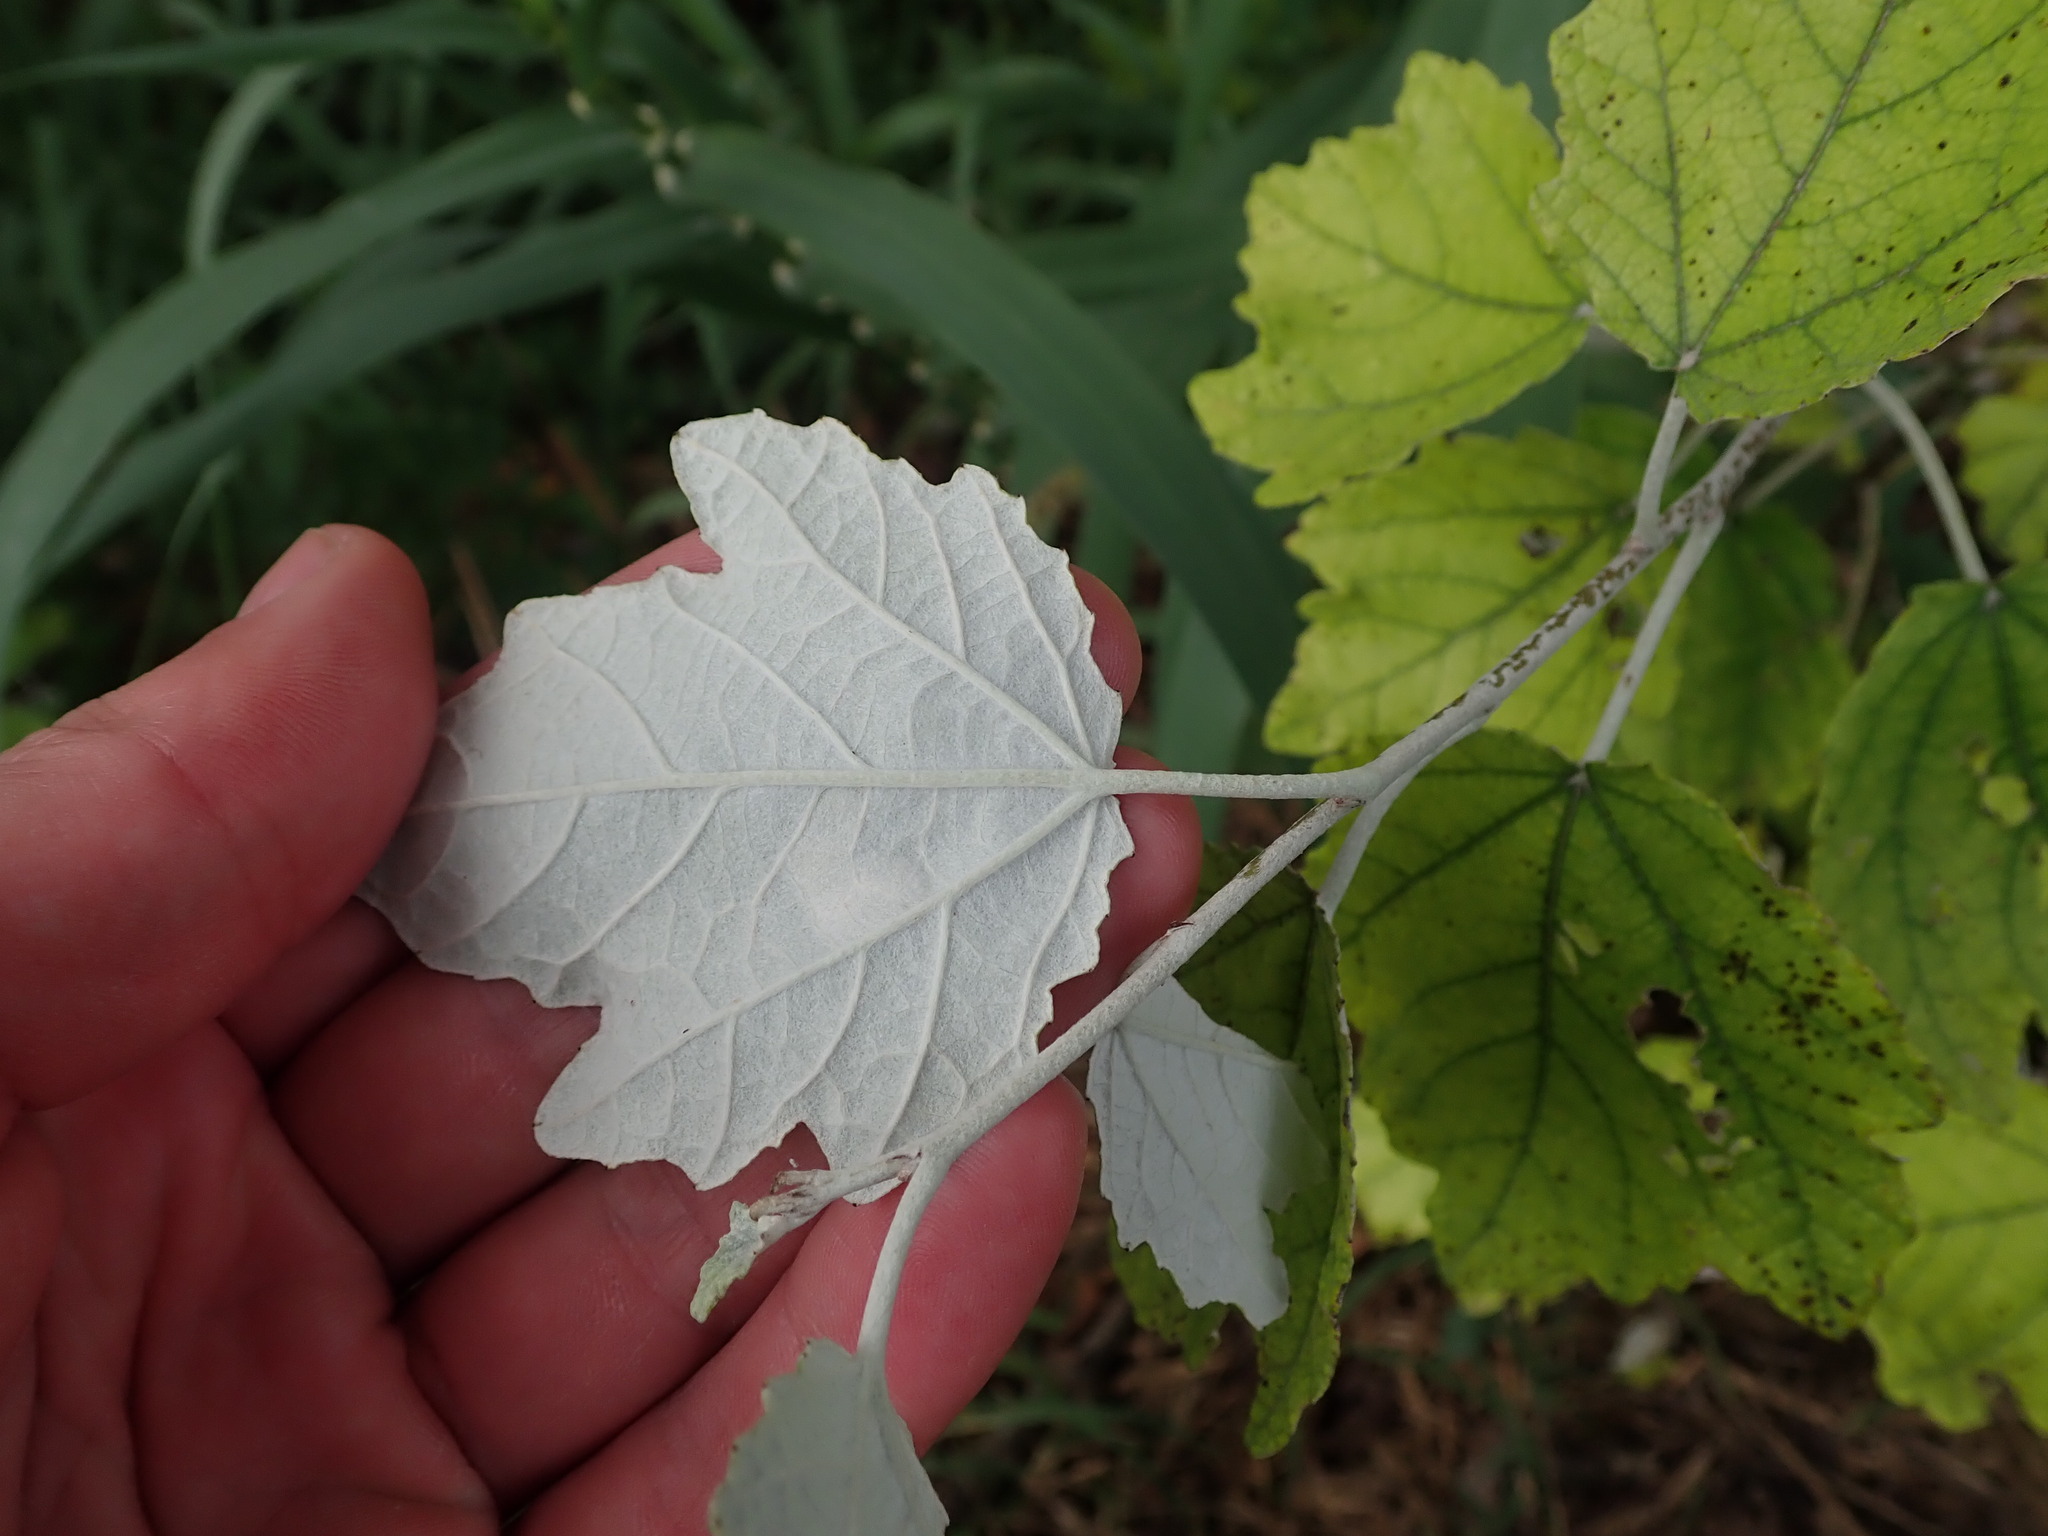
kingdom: Plantae
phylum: Tracheophyta
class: Magnoliopsida
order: Malpighiales
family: Salicaceae
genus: Populus
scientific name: Populus alba
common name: White poplar
